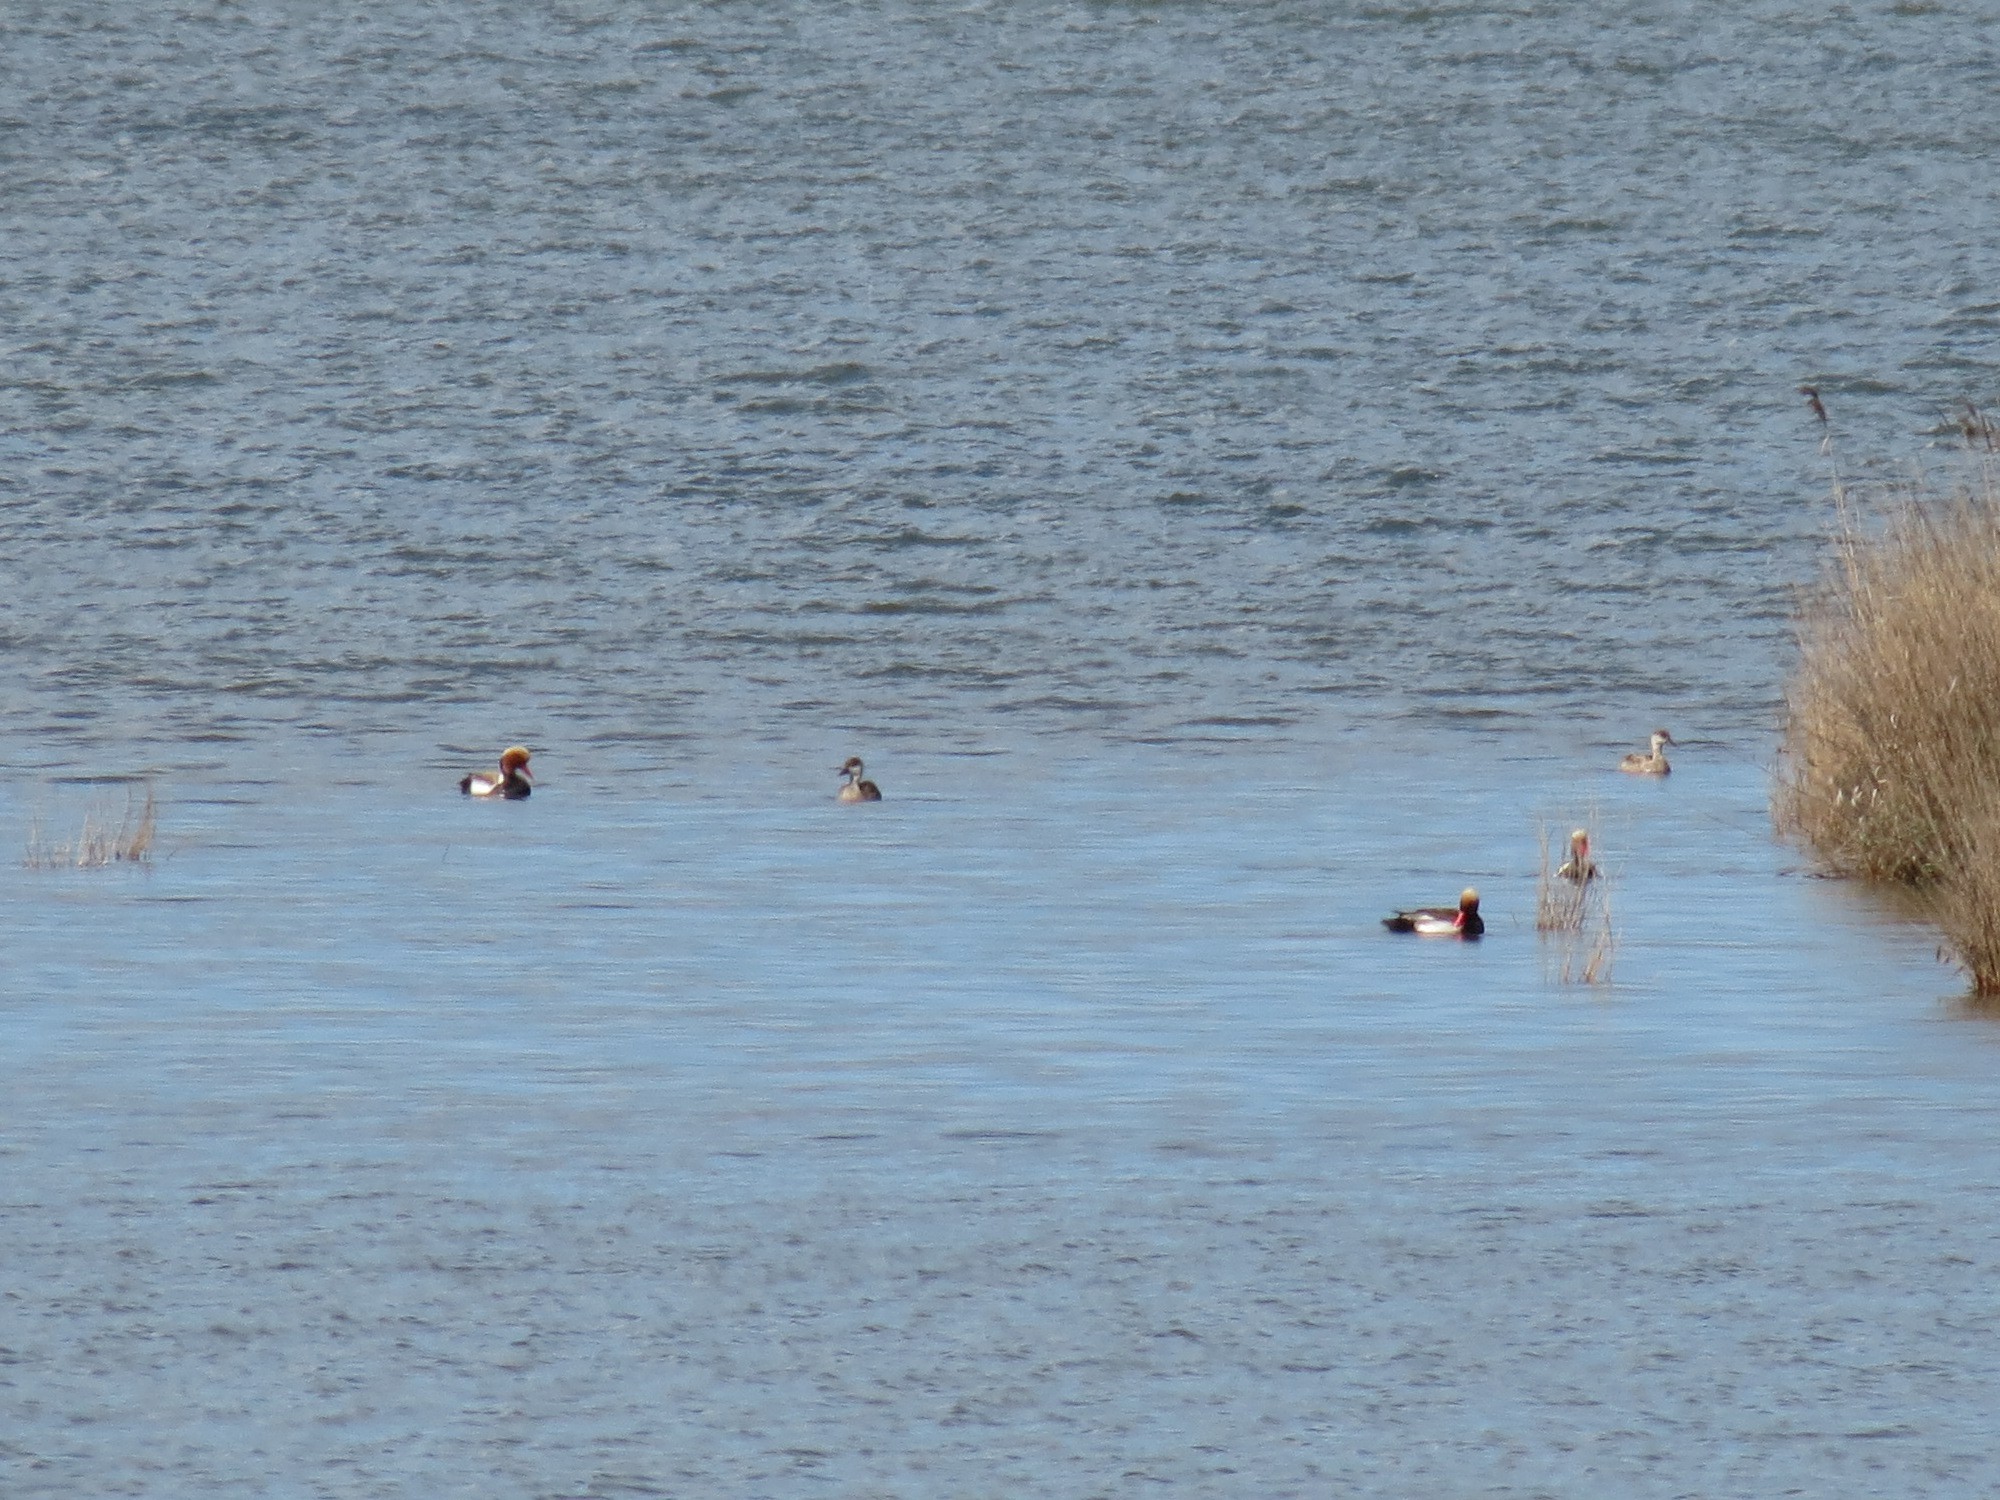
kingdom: Animalia
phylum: Chordata
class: Aves
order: Anseriformes
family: Anatidae
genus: Netta
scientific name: Netta rufina
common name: Red-crested pochard
